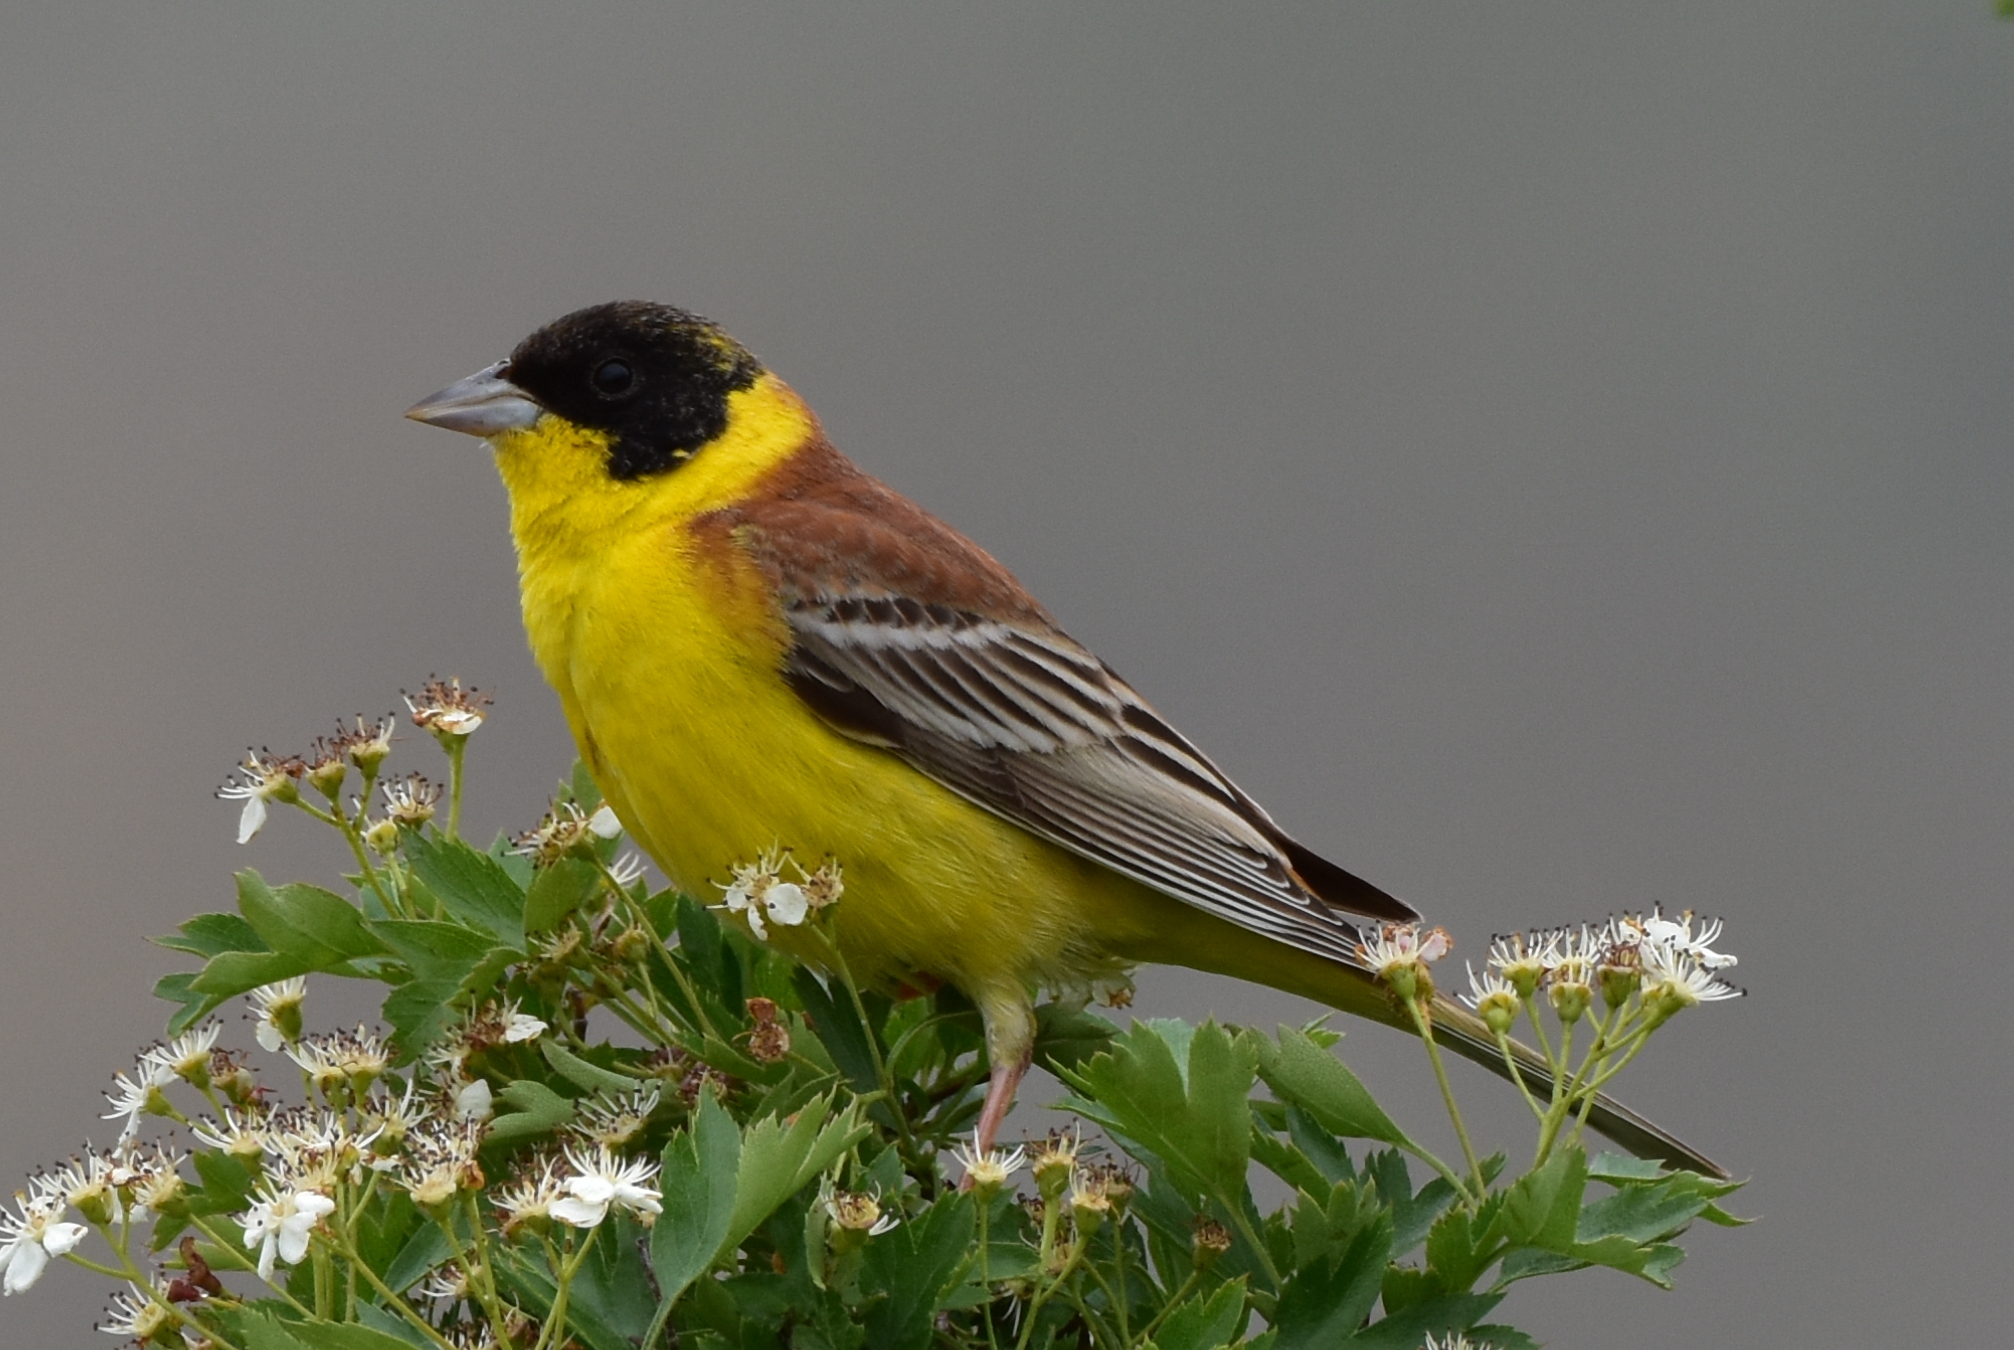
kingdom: Animalia
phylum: Chordata
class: Aves
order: Passeriformes
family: Emberizidae
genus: Emberiza
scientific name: Emberiza melanocephala
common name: Black-headed bunting
